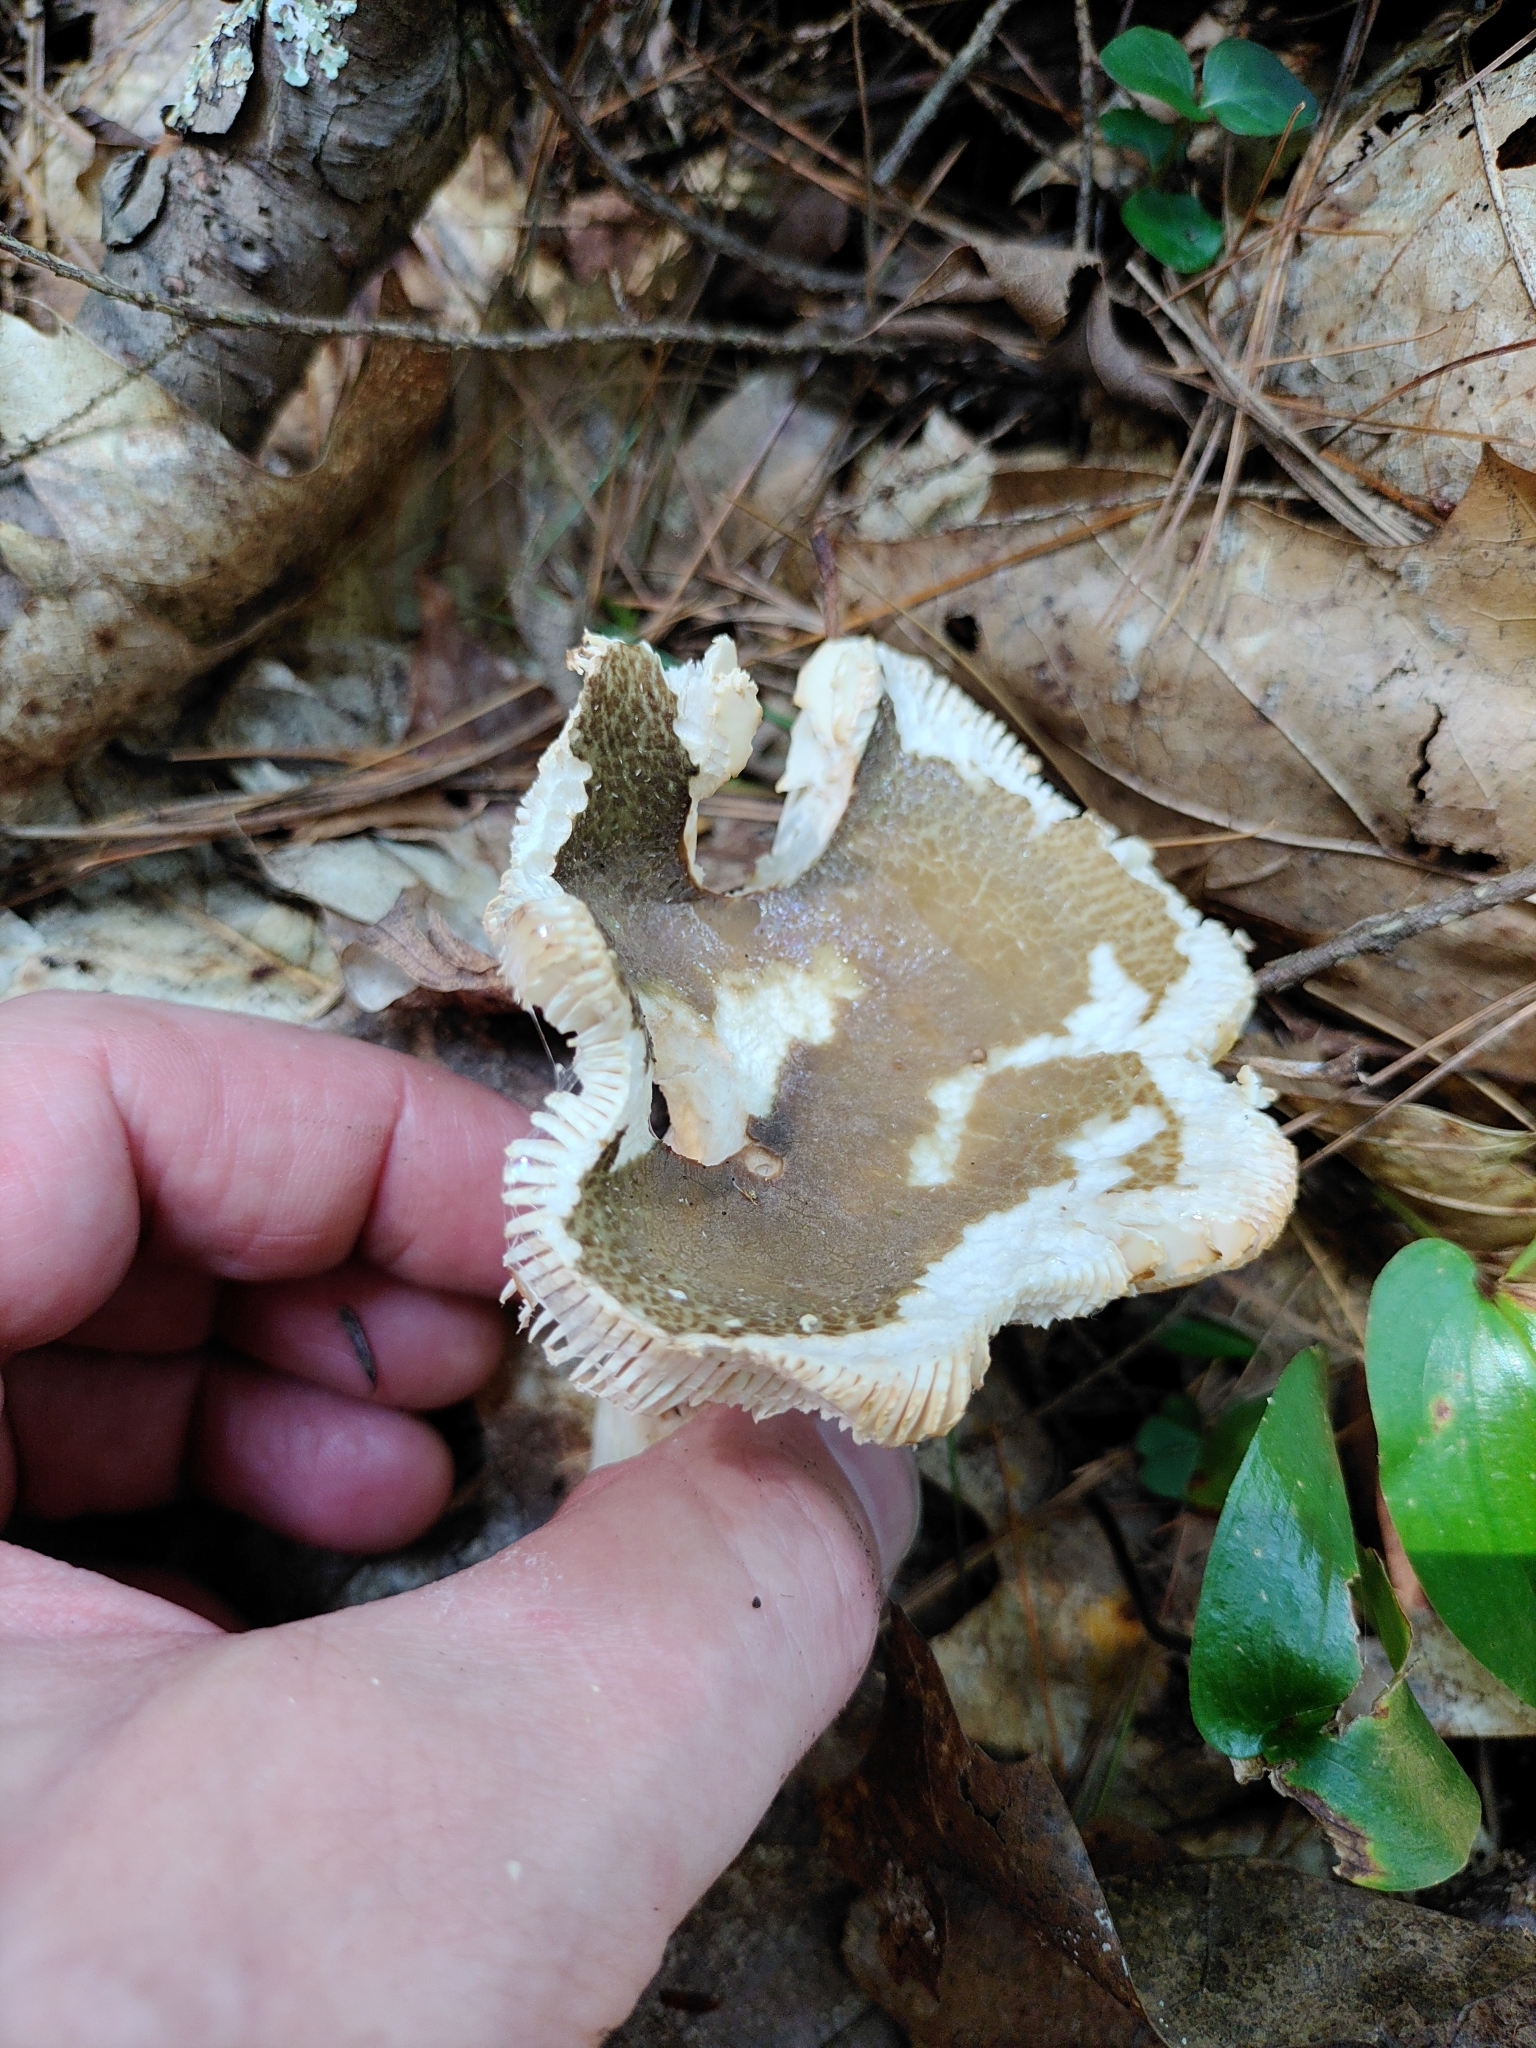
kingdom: Fungi
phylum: Basidiomycota
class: Agaricomycetes
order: Russulales
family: Russulaceae
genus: Russula
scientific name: Russula crustosa
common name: Green quilt russula
